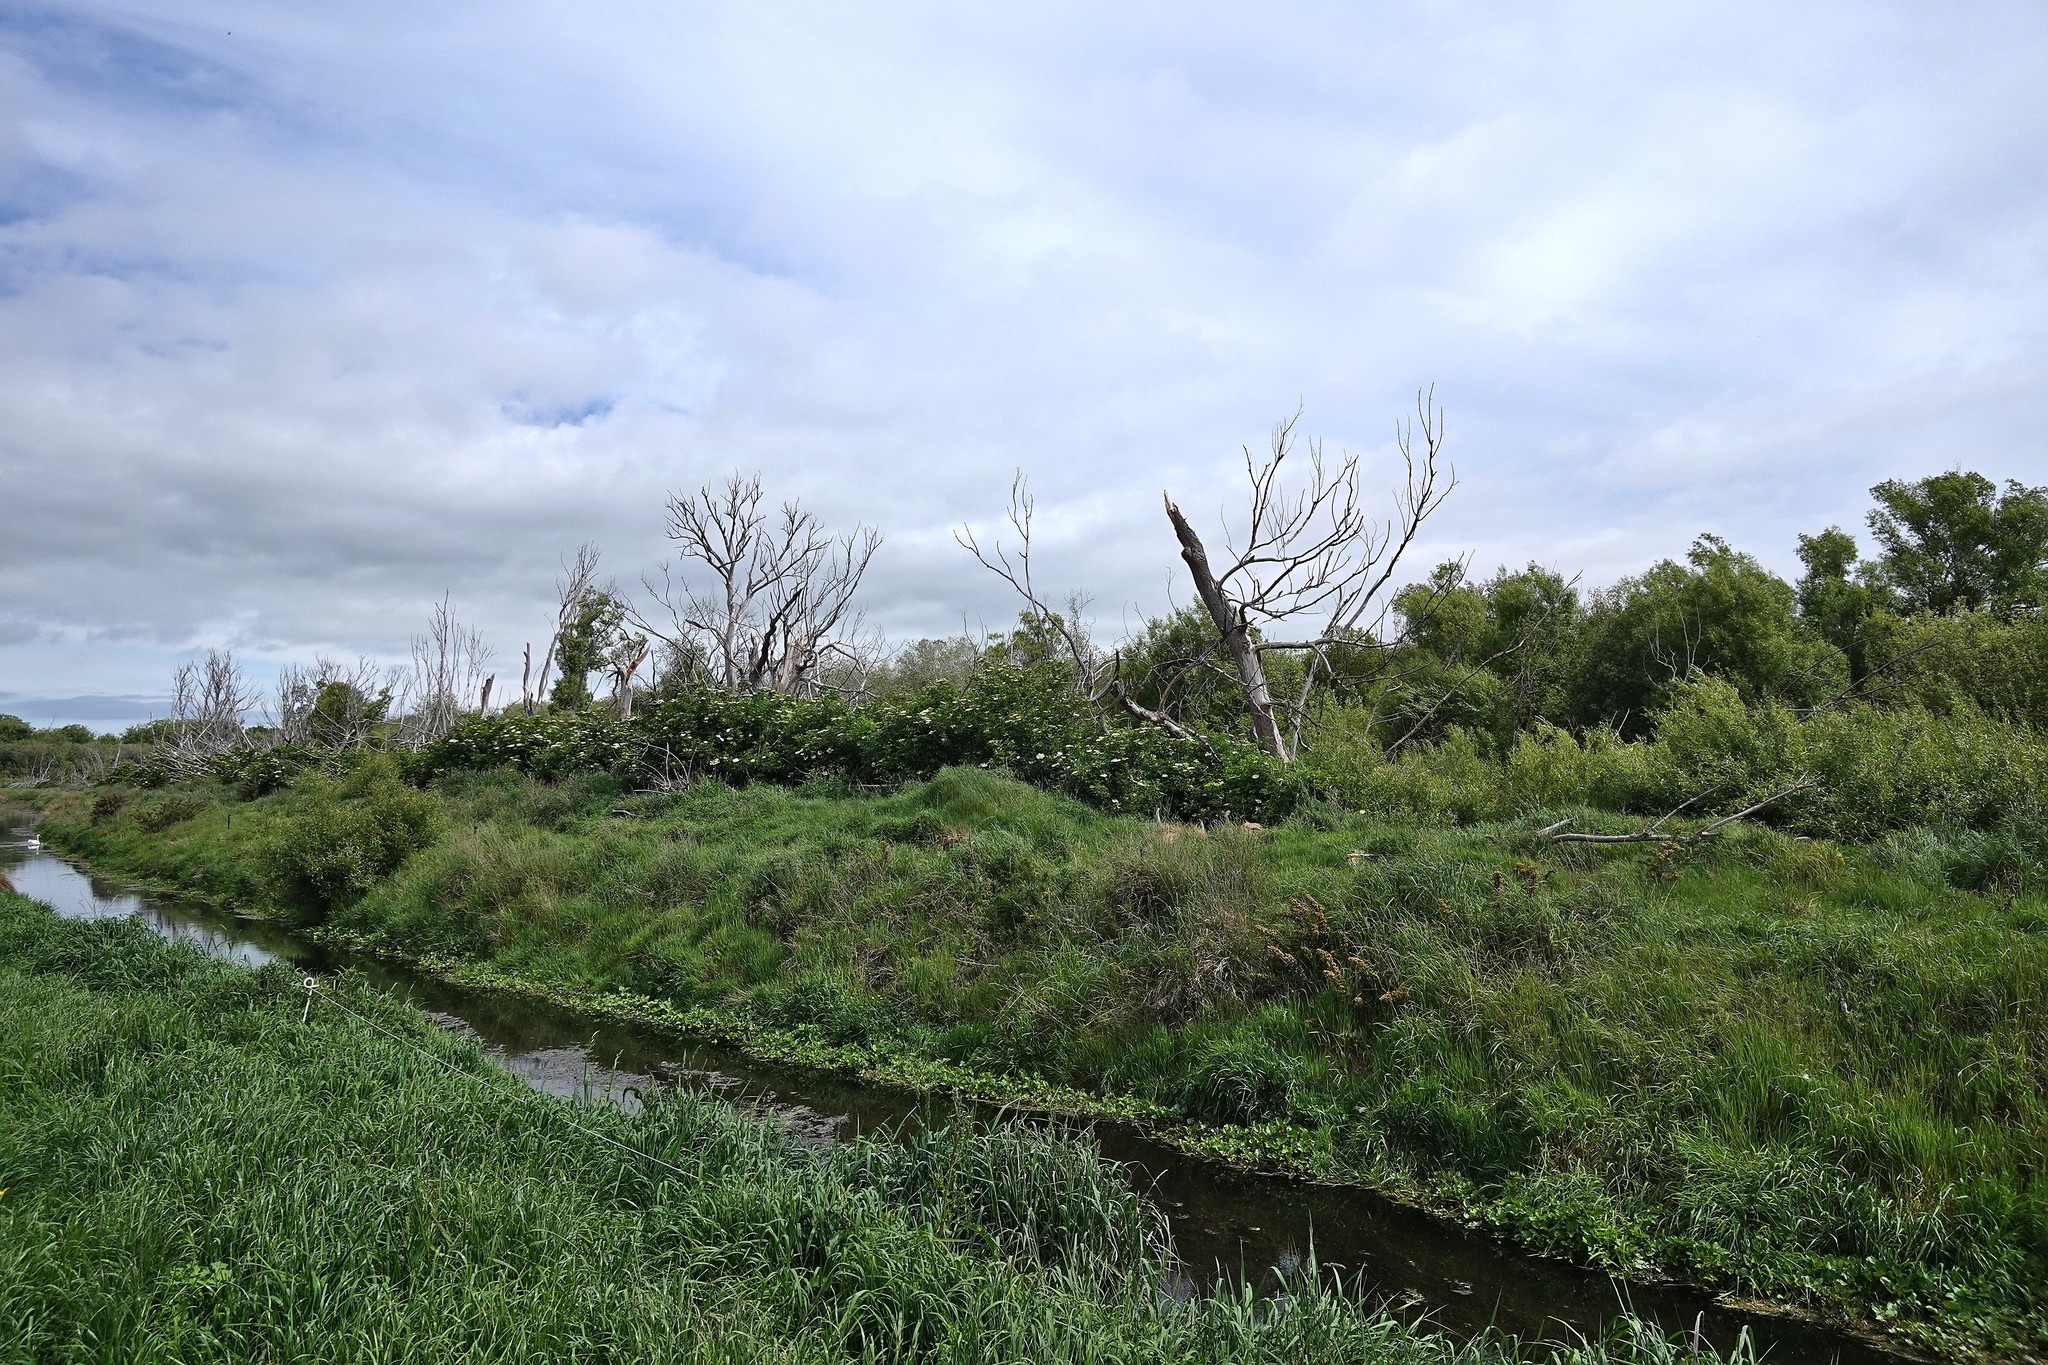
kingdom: Plantae
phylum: Tracheophyta
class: Magnoliopsida
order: Dipsacales
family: Viburnaceae
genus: Sambucus
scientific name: Sambucus nigra
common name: Elder
